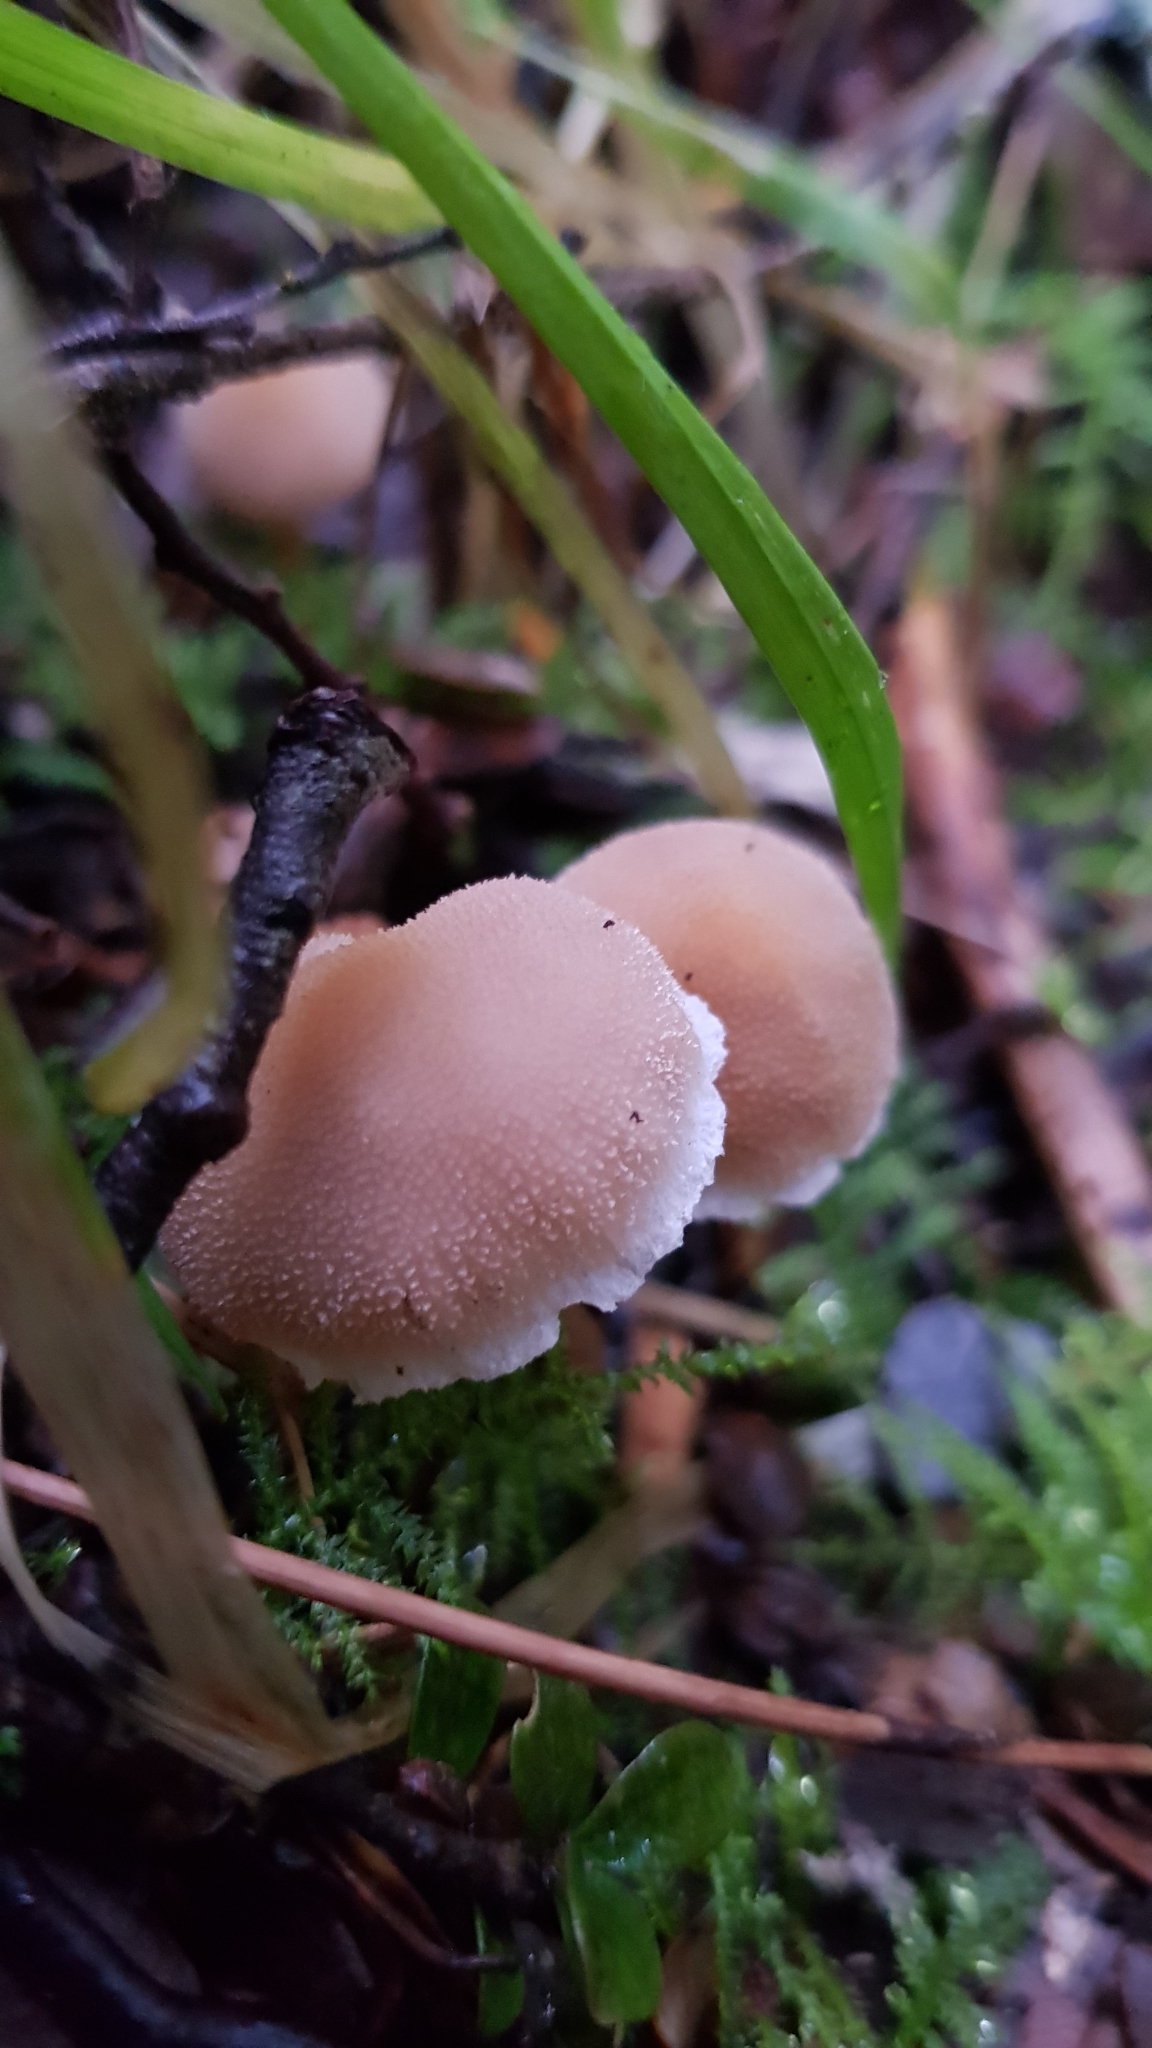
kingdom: Fungi
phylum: Basidiomycota
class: Agaricomycetes
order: Agaricales
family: Bolbitiaceae
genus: Tympanella
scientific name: Tympanella galanthina
